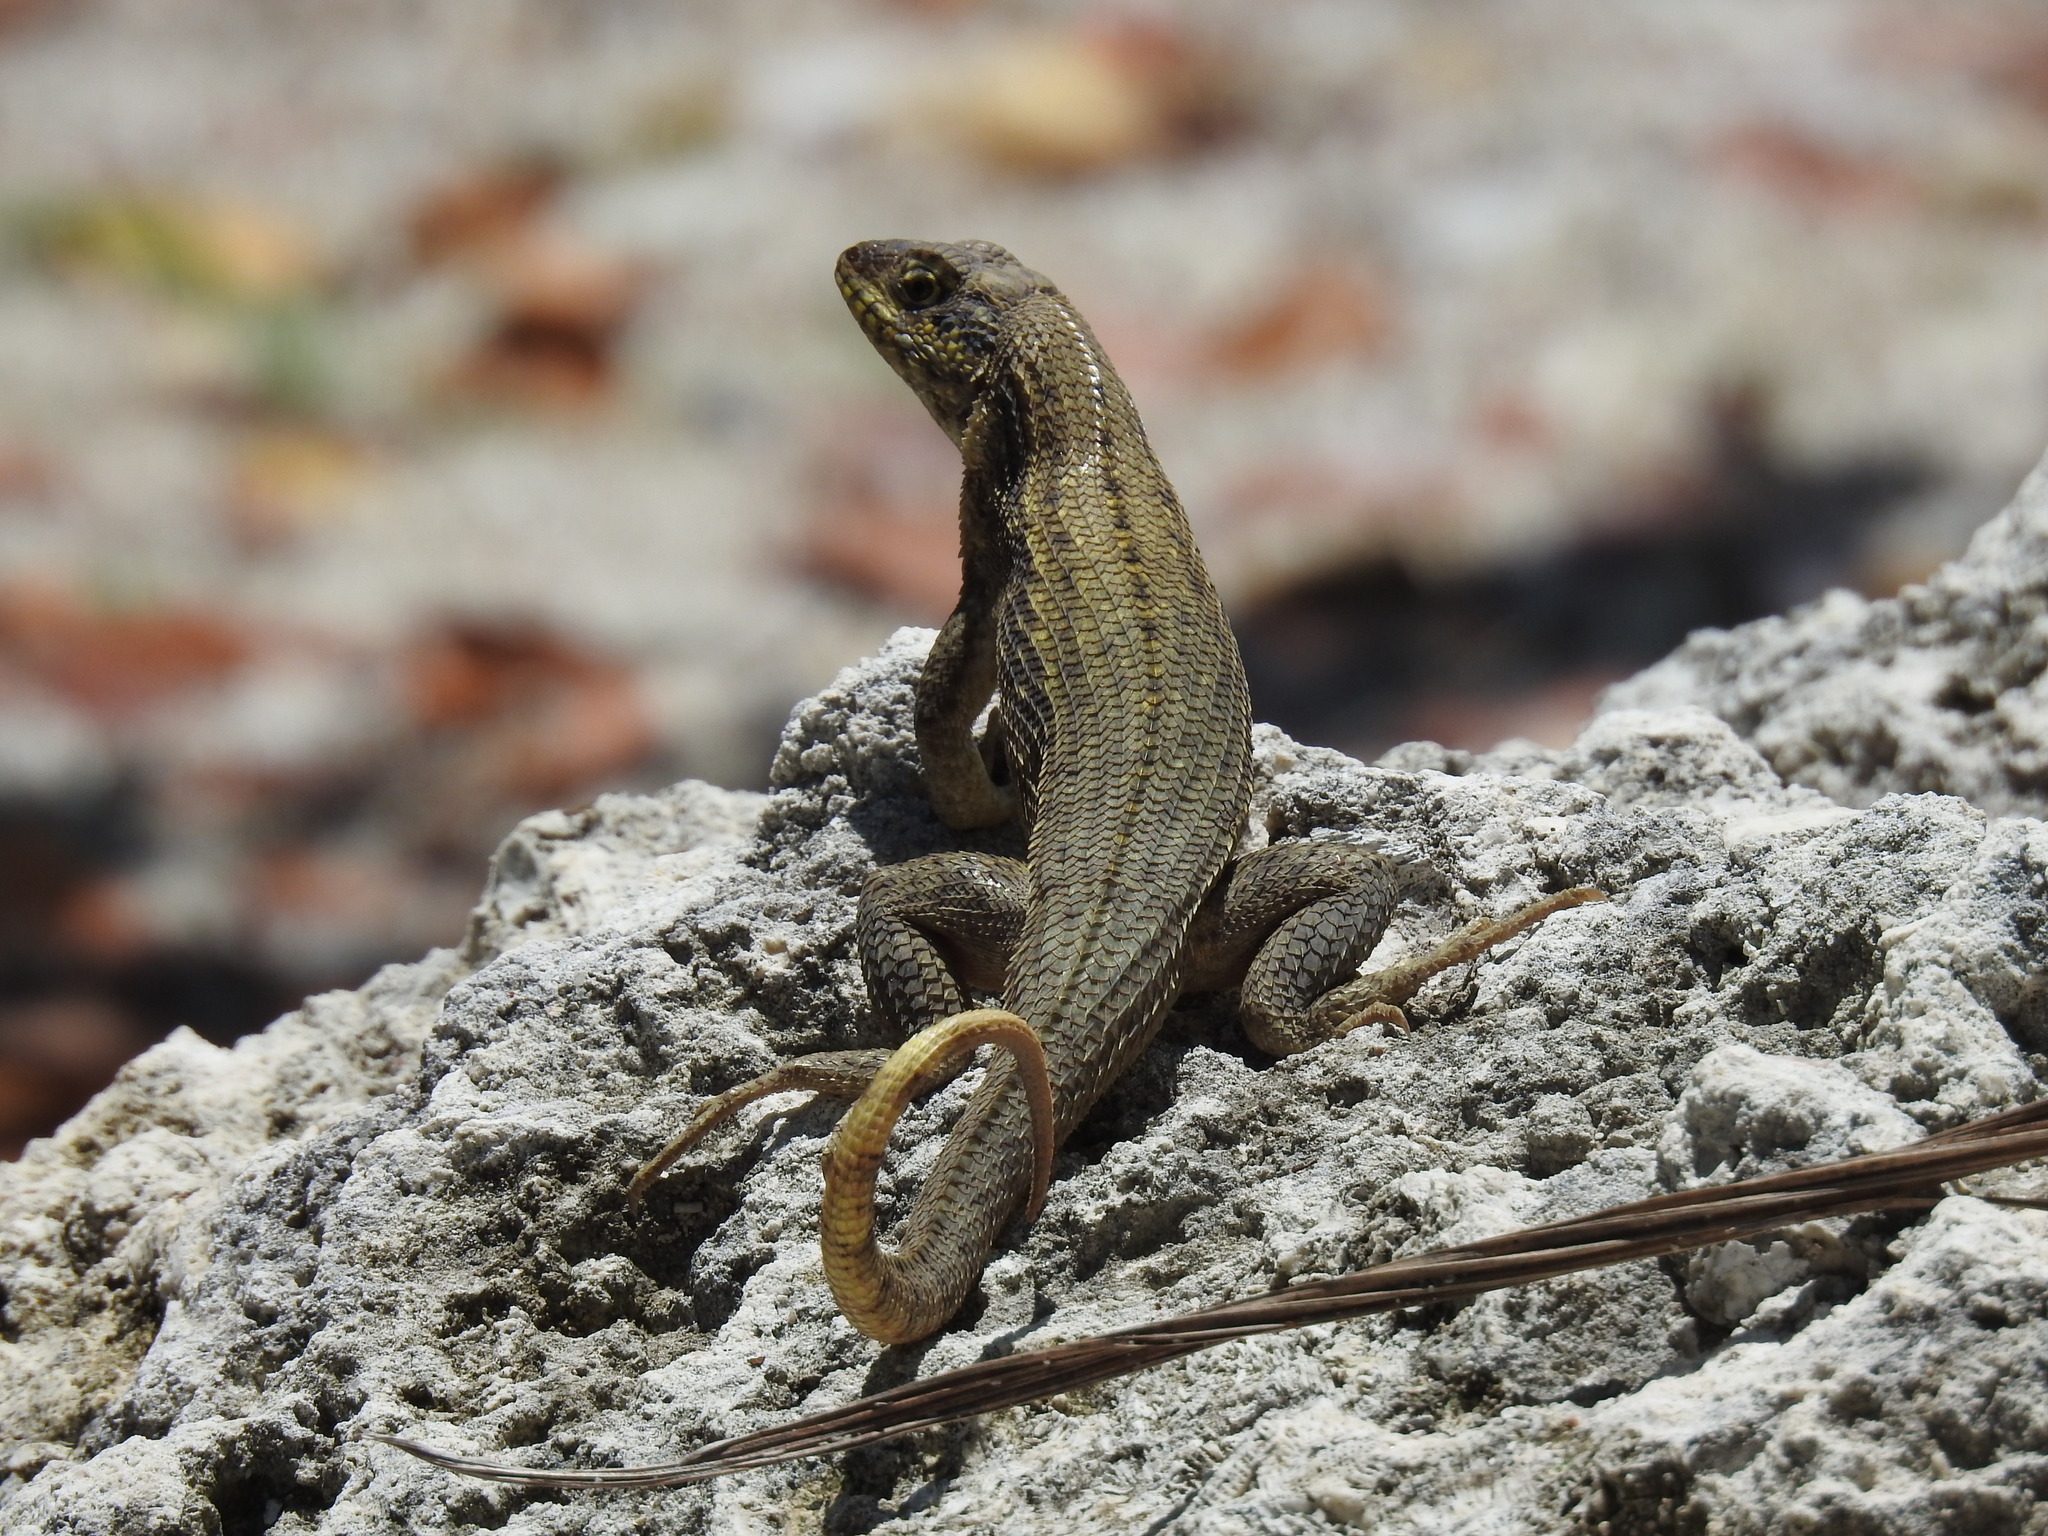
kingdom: Animalia
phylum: Chordata
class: Squamata
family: Leiocephalidae
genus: Leiocephalus
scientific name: Leiocephalus carinatus
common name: Northern curly-tailed lizard
